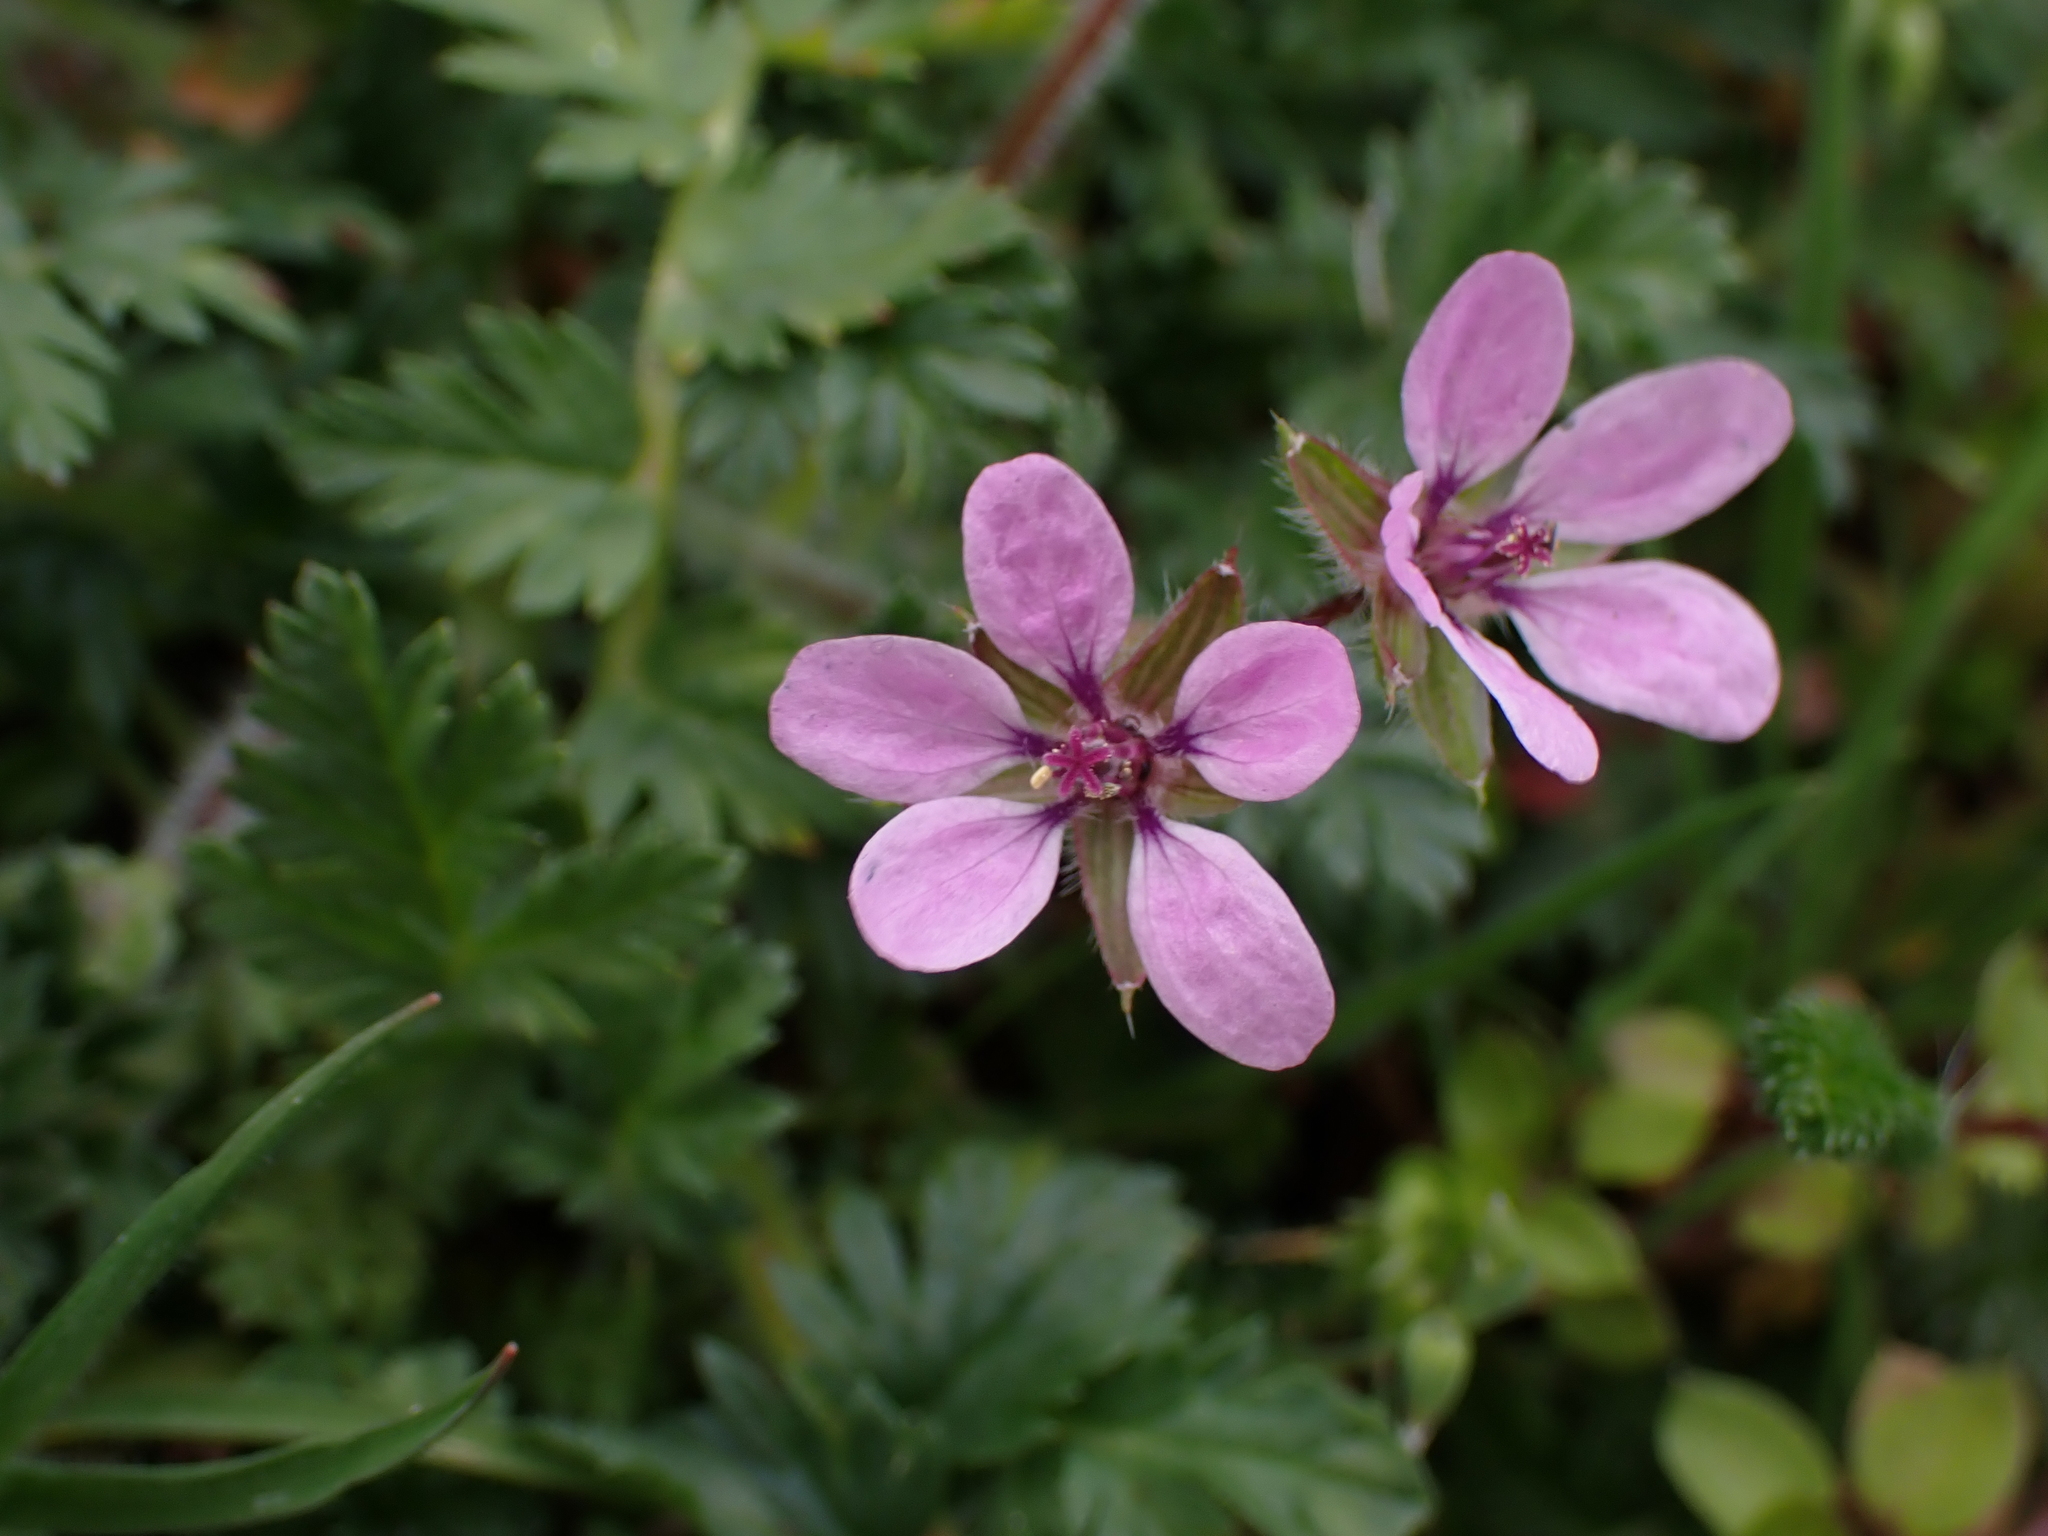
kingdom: Plantae
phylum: Tracheophyta
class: Magnoliopsida
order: Geraniales
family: Geraniaceae
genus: Erodium
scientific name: Erodium cicutarium
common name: Common stork's-bill
